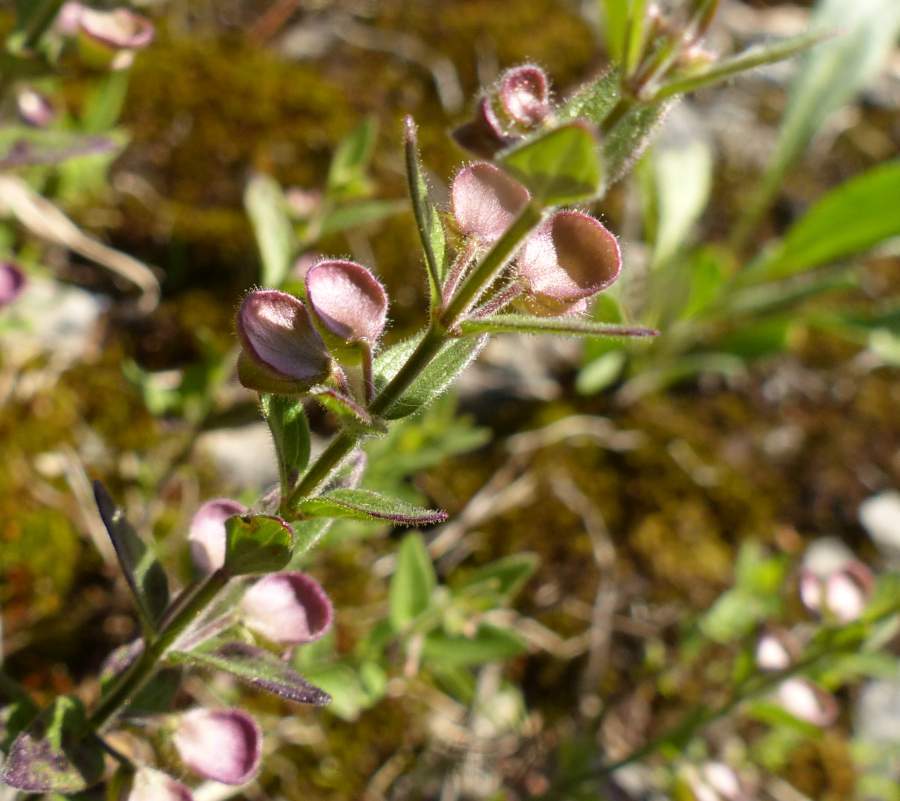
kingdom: Plantae
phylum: Tracheophyta
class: Magnoliopsida
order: Lamiales
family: Lamiaceae
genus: Scutellaria
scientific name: Scutellaria parvula
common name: Little scullcap
